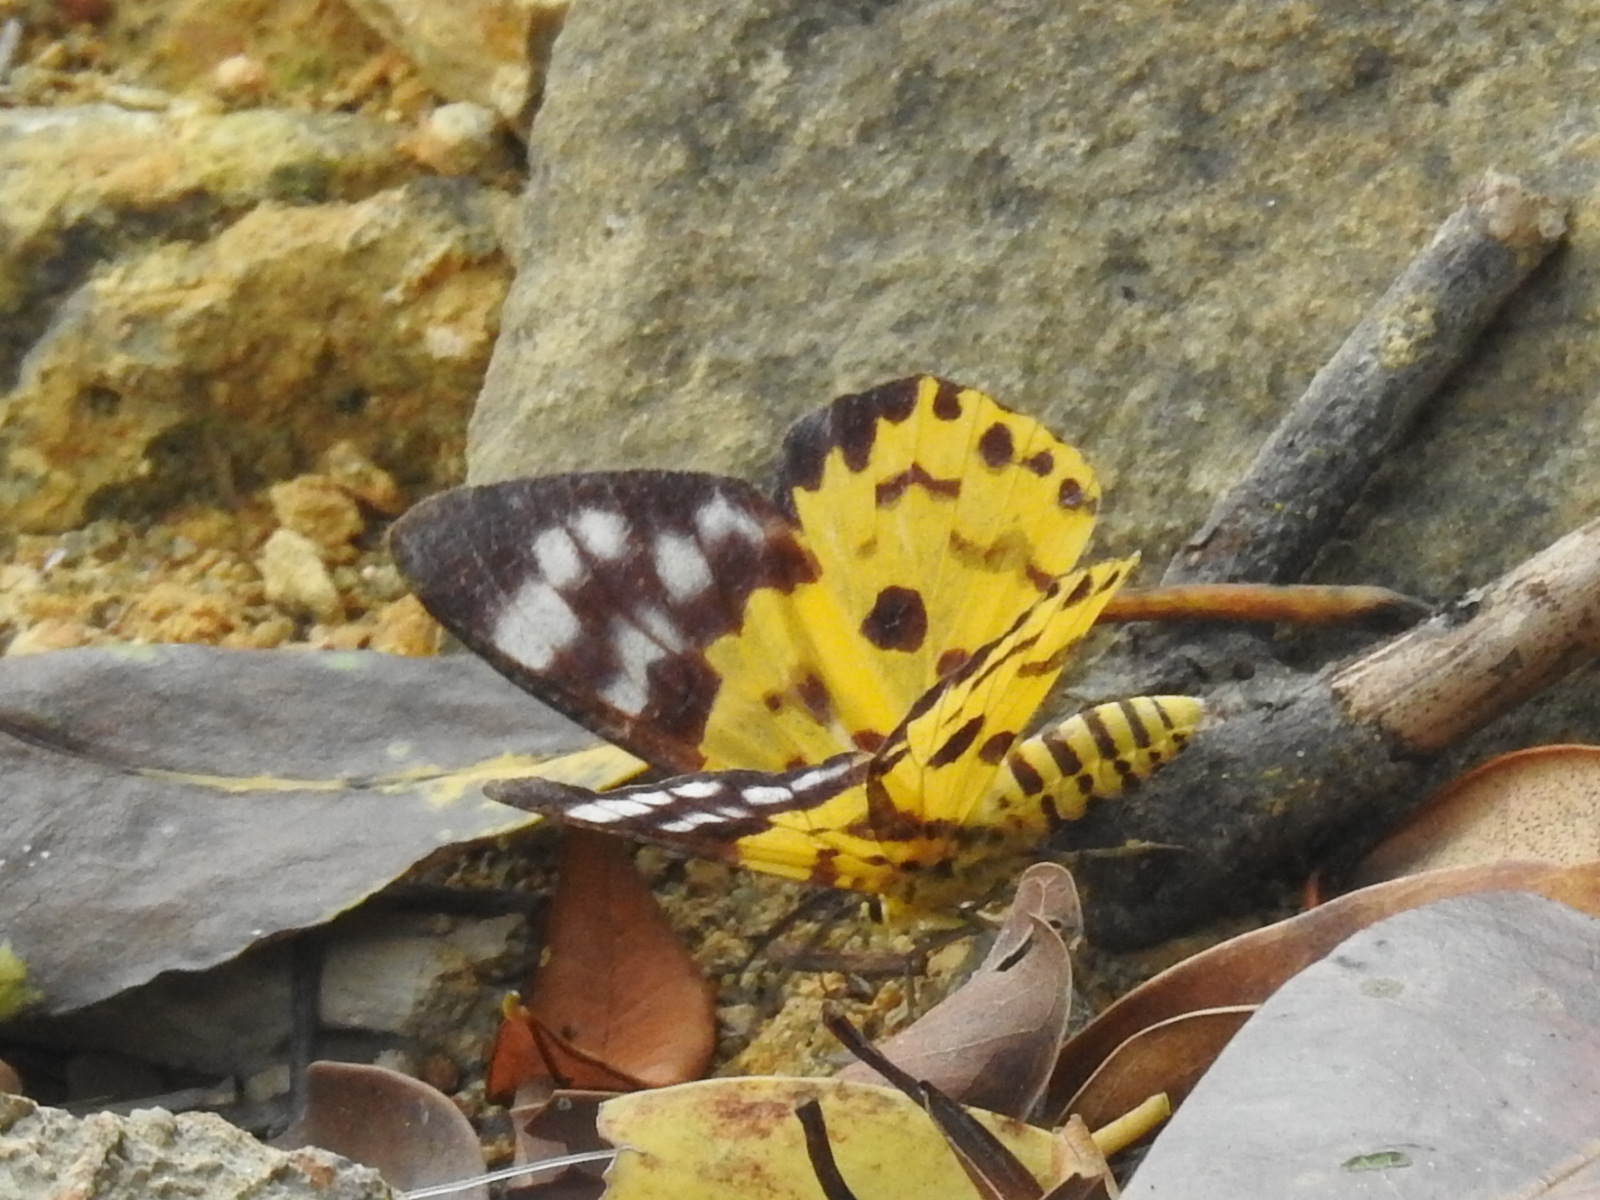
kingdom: Animalia
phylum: Arthropoda
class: Insecta
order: Lepidoptera
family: Geometridae
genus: Dysphania
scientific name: Dysphania militaris
